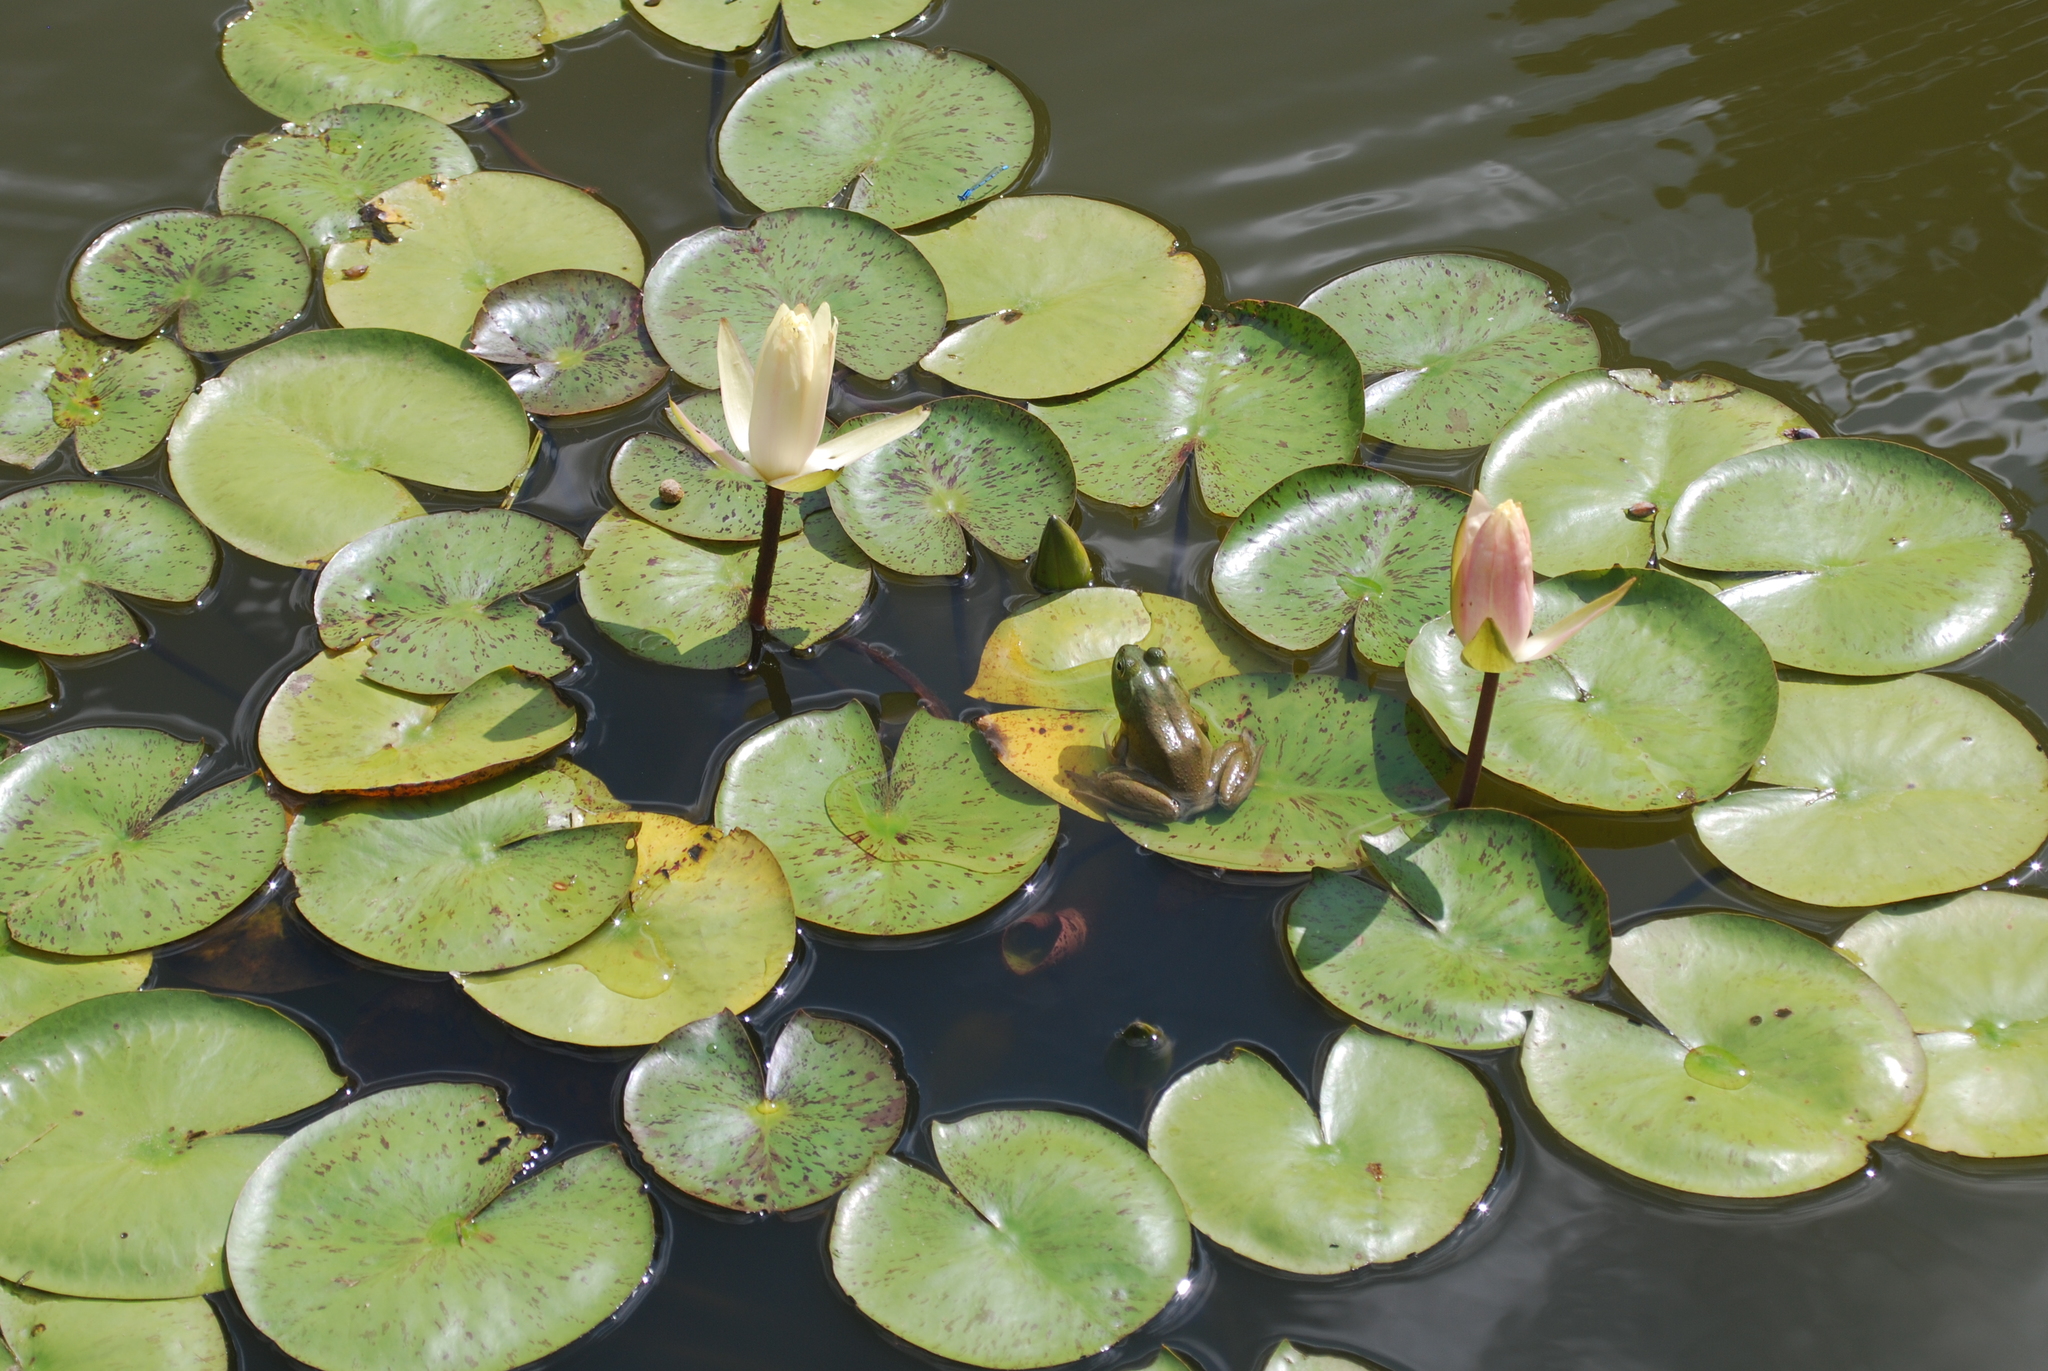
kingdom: Animalia
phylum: Chordata
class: Amphibia
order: Anura
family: Ranidae
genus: Lithobates
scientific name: Lithobates catesbeianus
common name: American bullfrog
